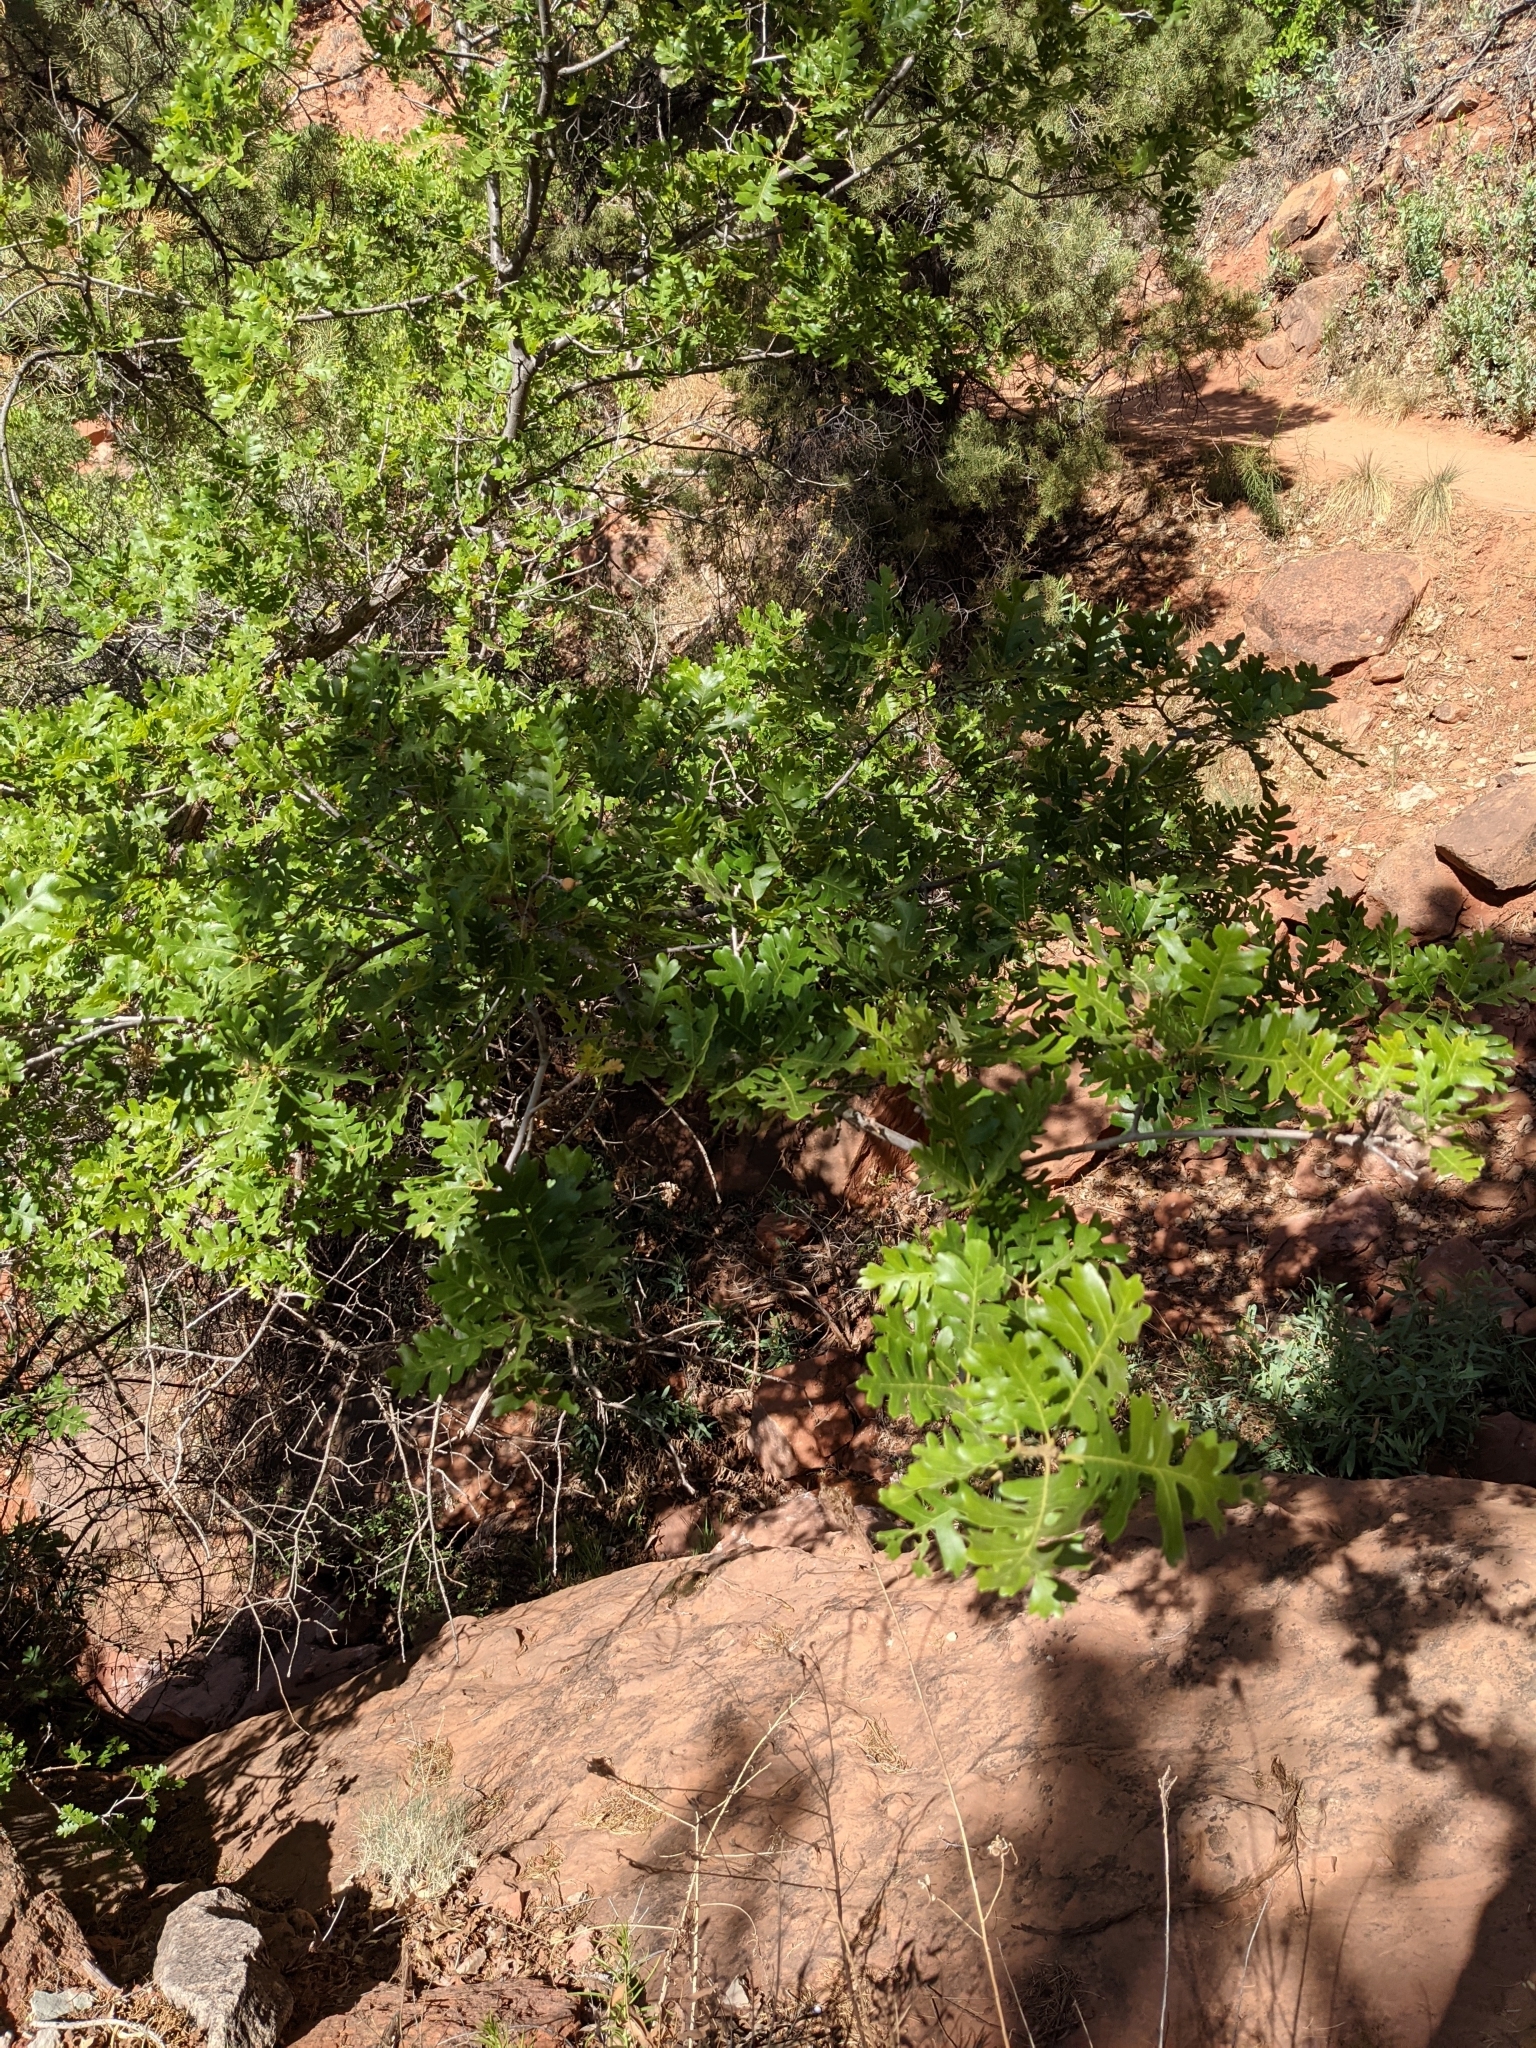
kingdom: Plantae
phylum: Tracheophyta
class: Magnoliopsida
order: Fagales
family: Fagaceae
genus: Quercus
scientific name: Quercus gambelii
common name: Gambel oak
